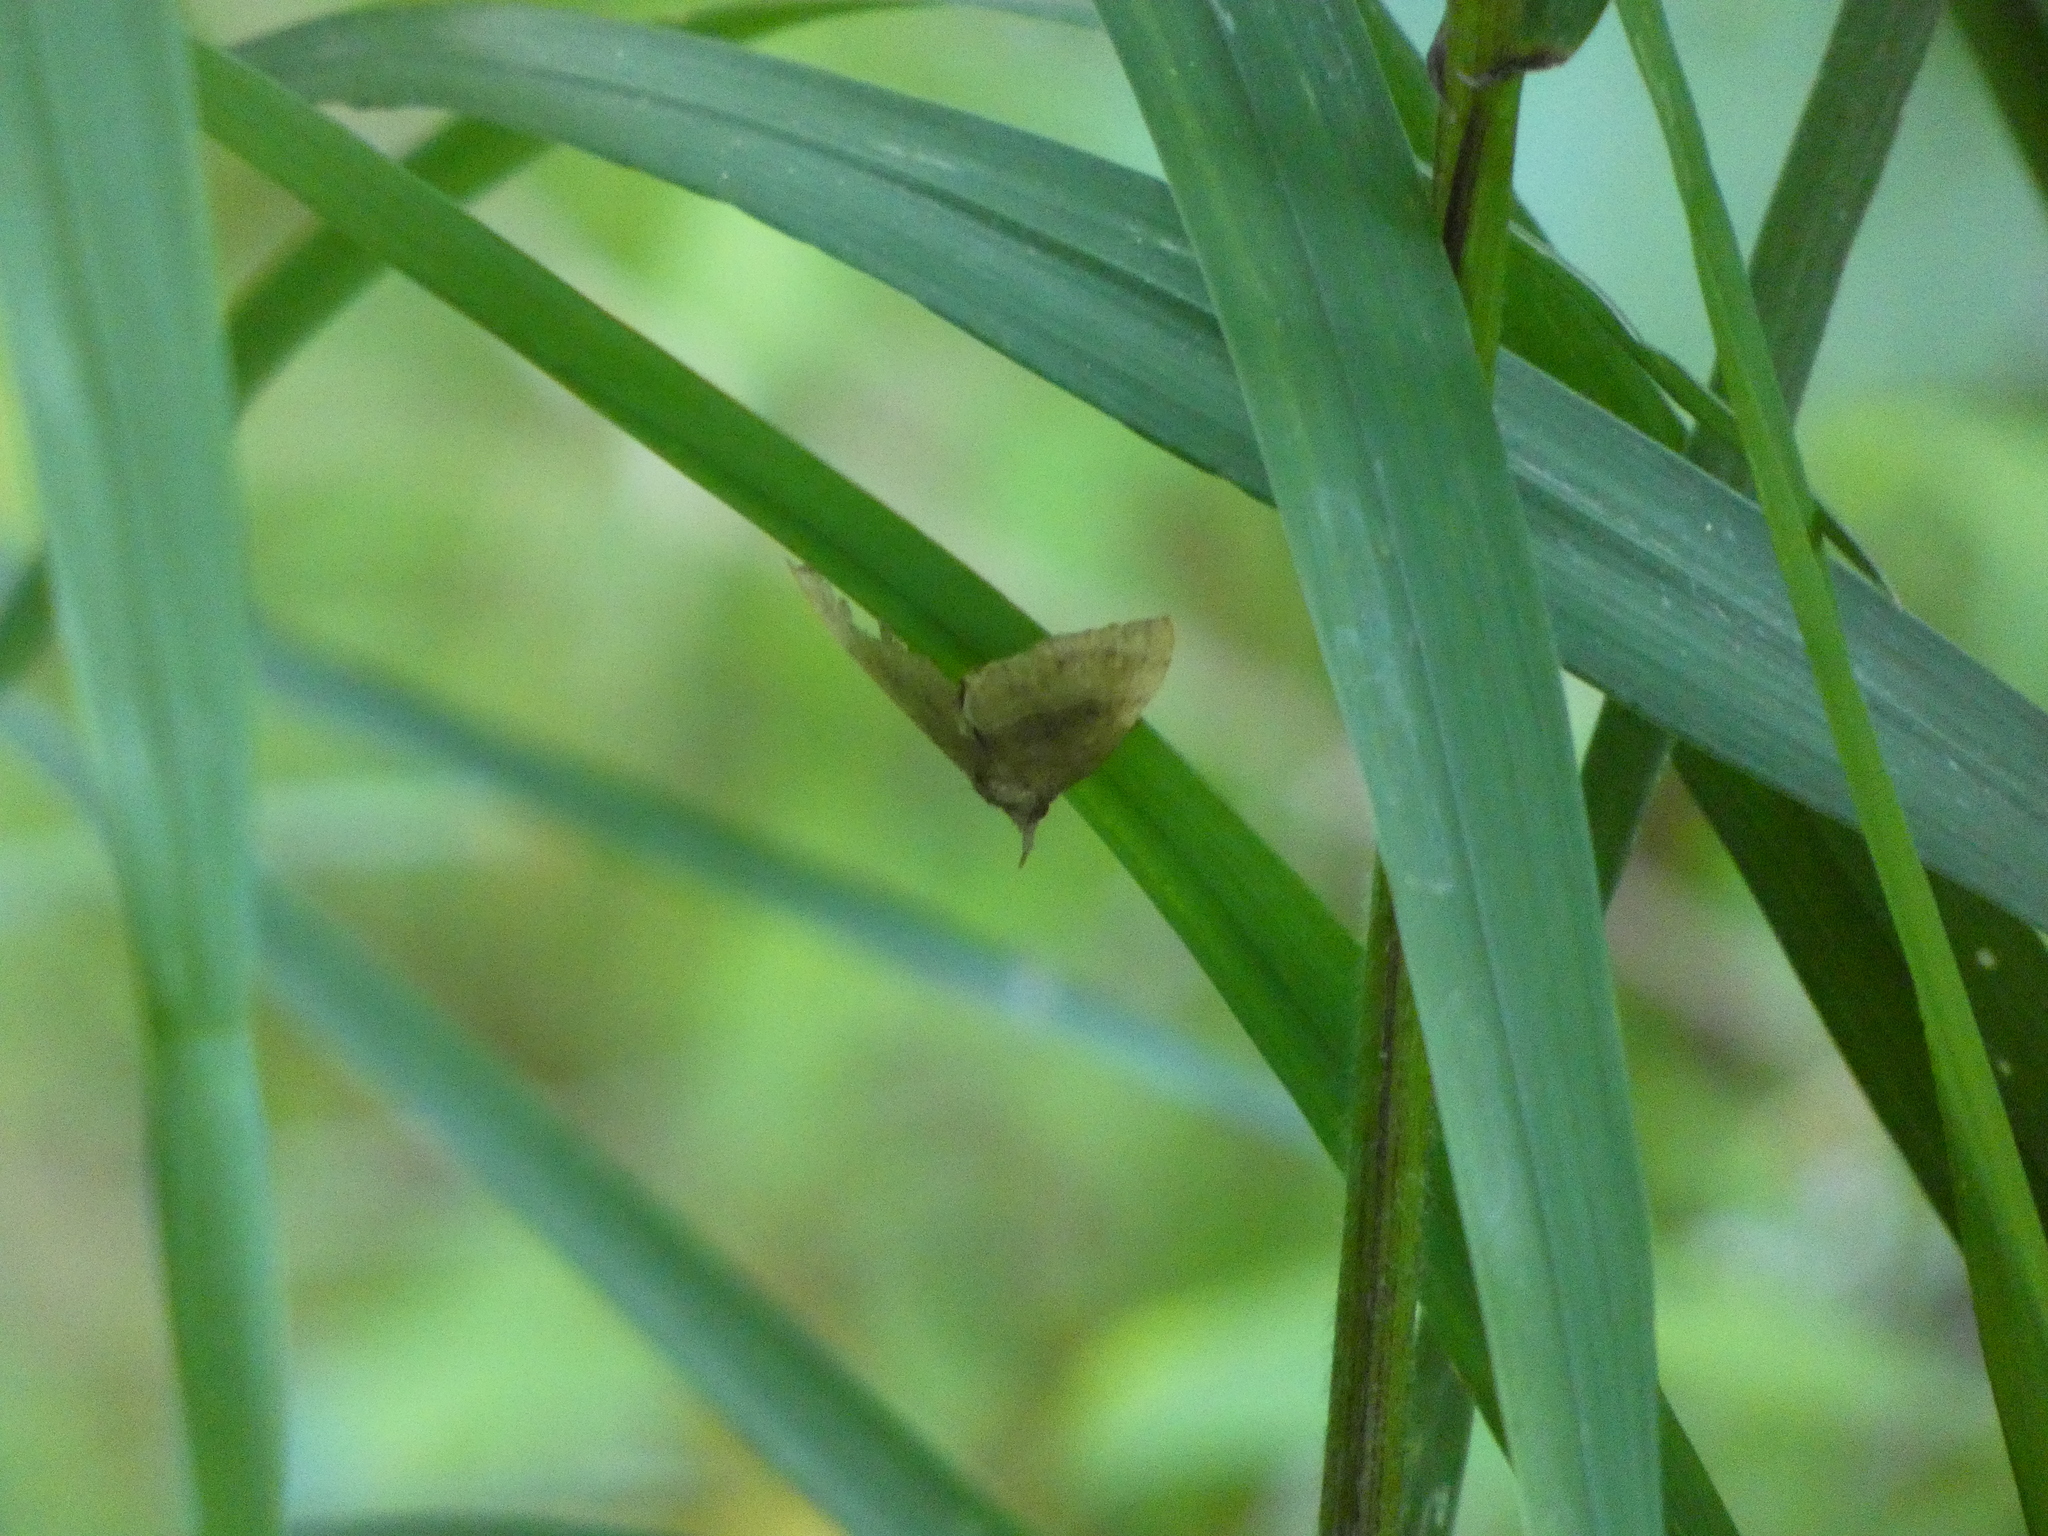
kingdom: Animalia
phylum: Arthropoda
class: Insecta
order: Lepidoptera
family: Erebidae
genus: Hypena
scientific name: Hypena madefactalis
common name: Gray-edged snout
